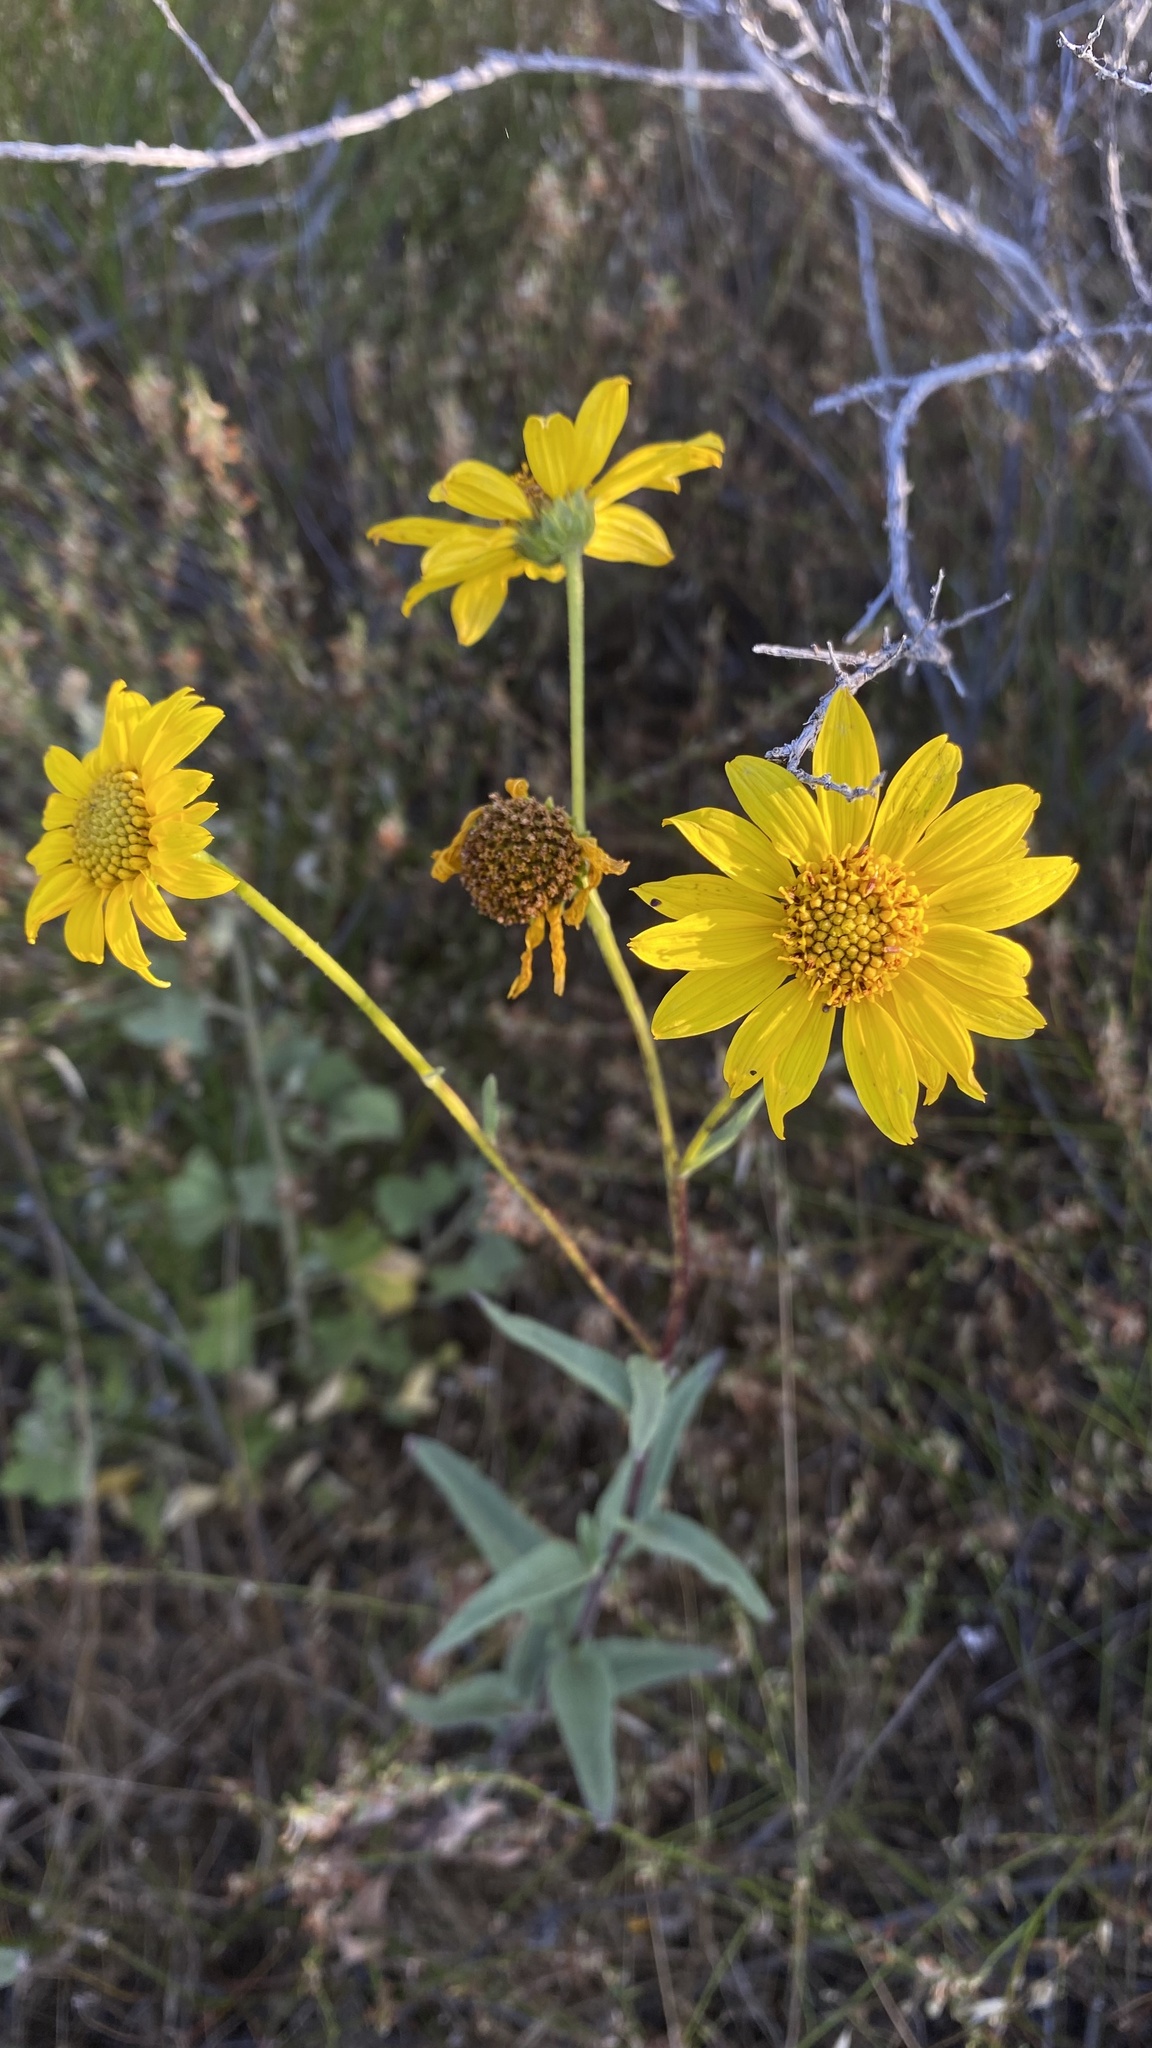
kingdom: Plantae
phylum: Tracheophyta
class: Magnoliopsida
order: Asterales
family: Asteraceae
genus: Helianthus
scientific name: Helianthus gracilentus
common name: Slender sunflower
